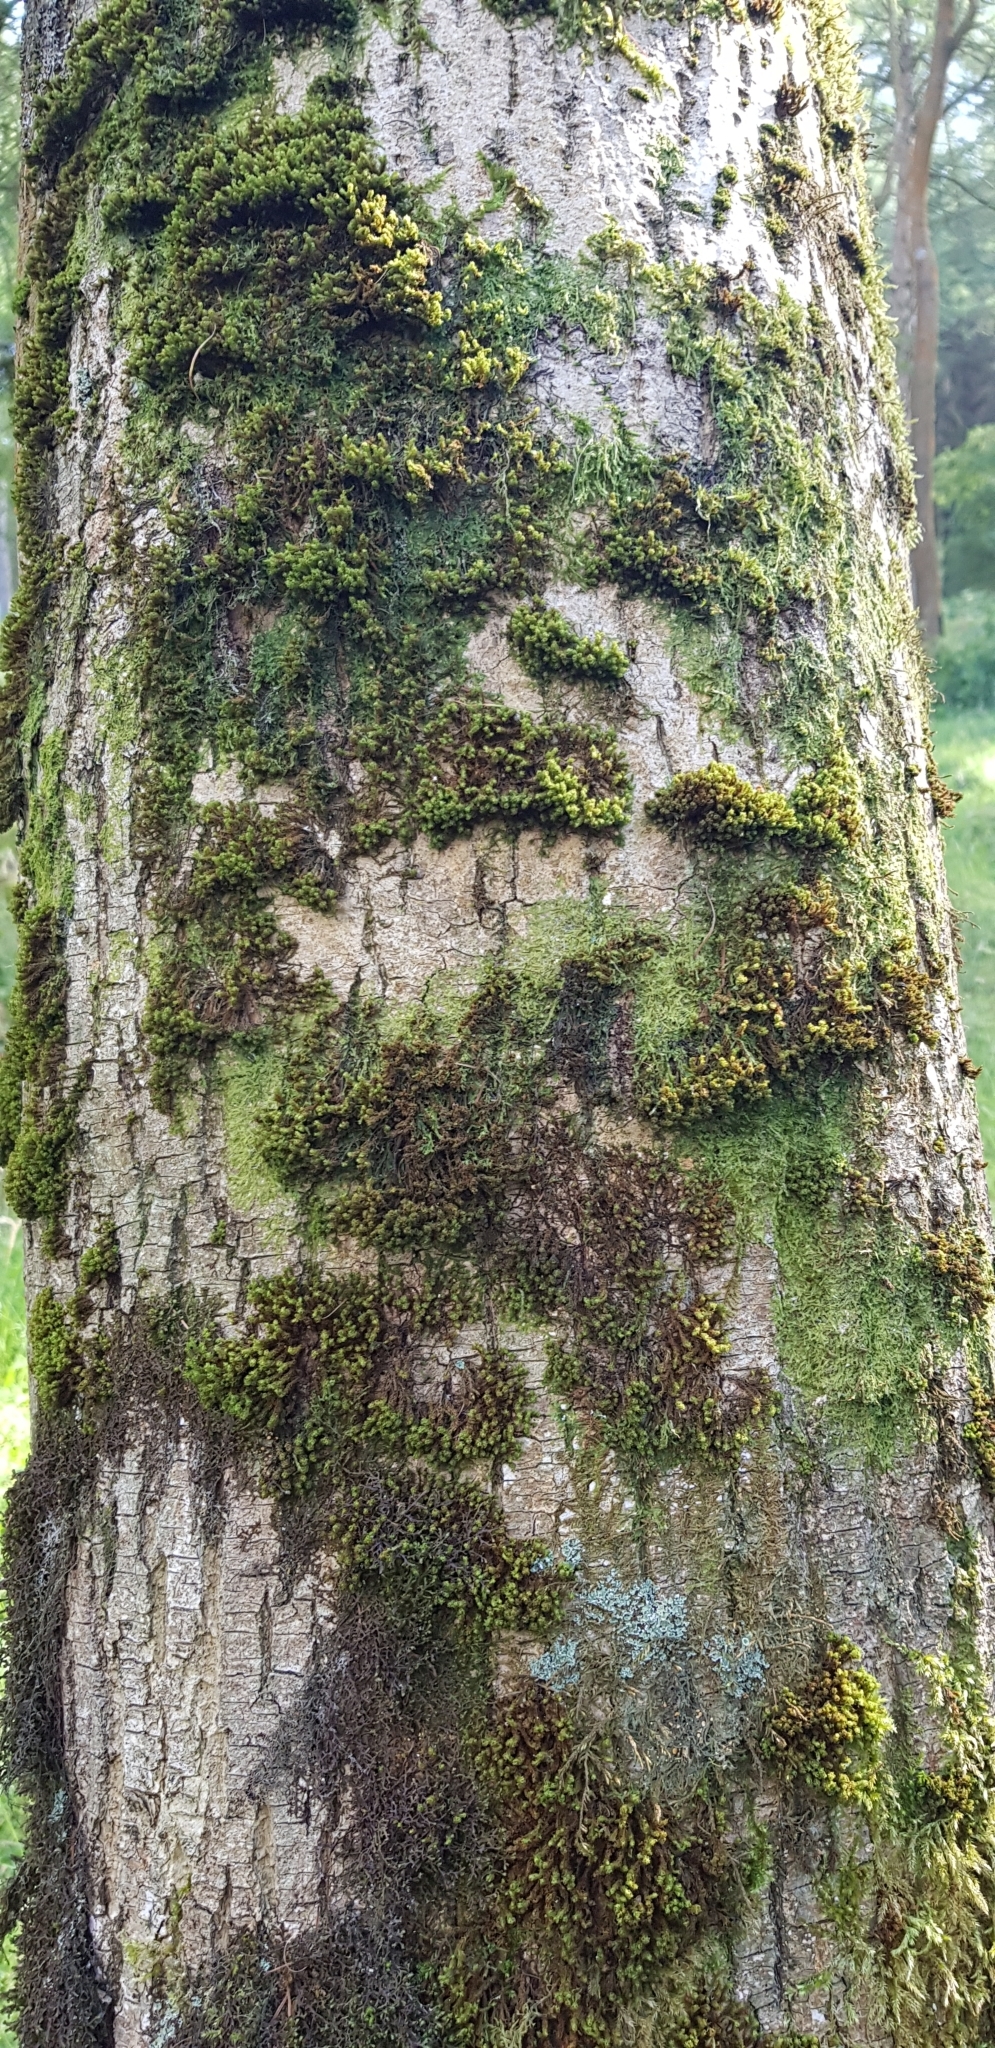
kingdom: Plantae
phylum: Marchantiophyta
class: Jungermanniopsida
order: Metzgeriales
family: Metzgeriaceae
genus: Metzgeria
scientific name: Metzgeria furcata
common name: Forked veilwort
